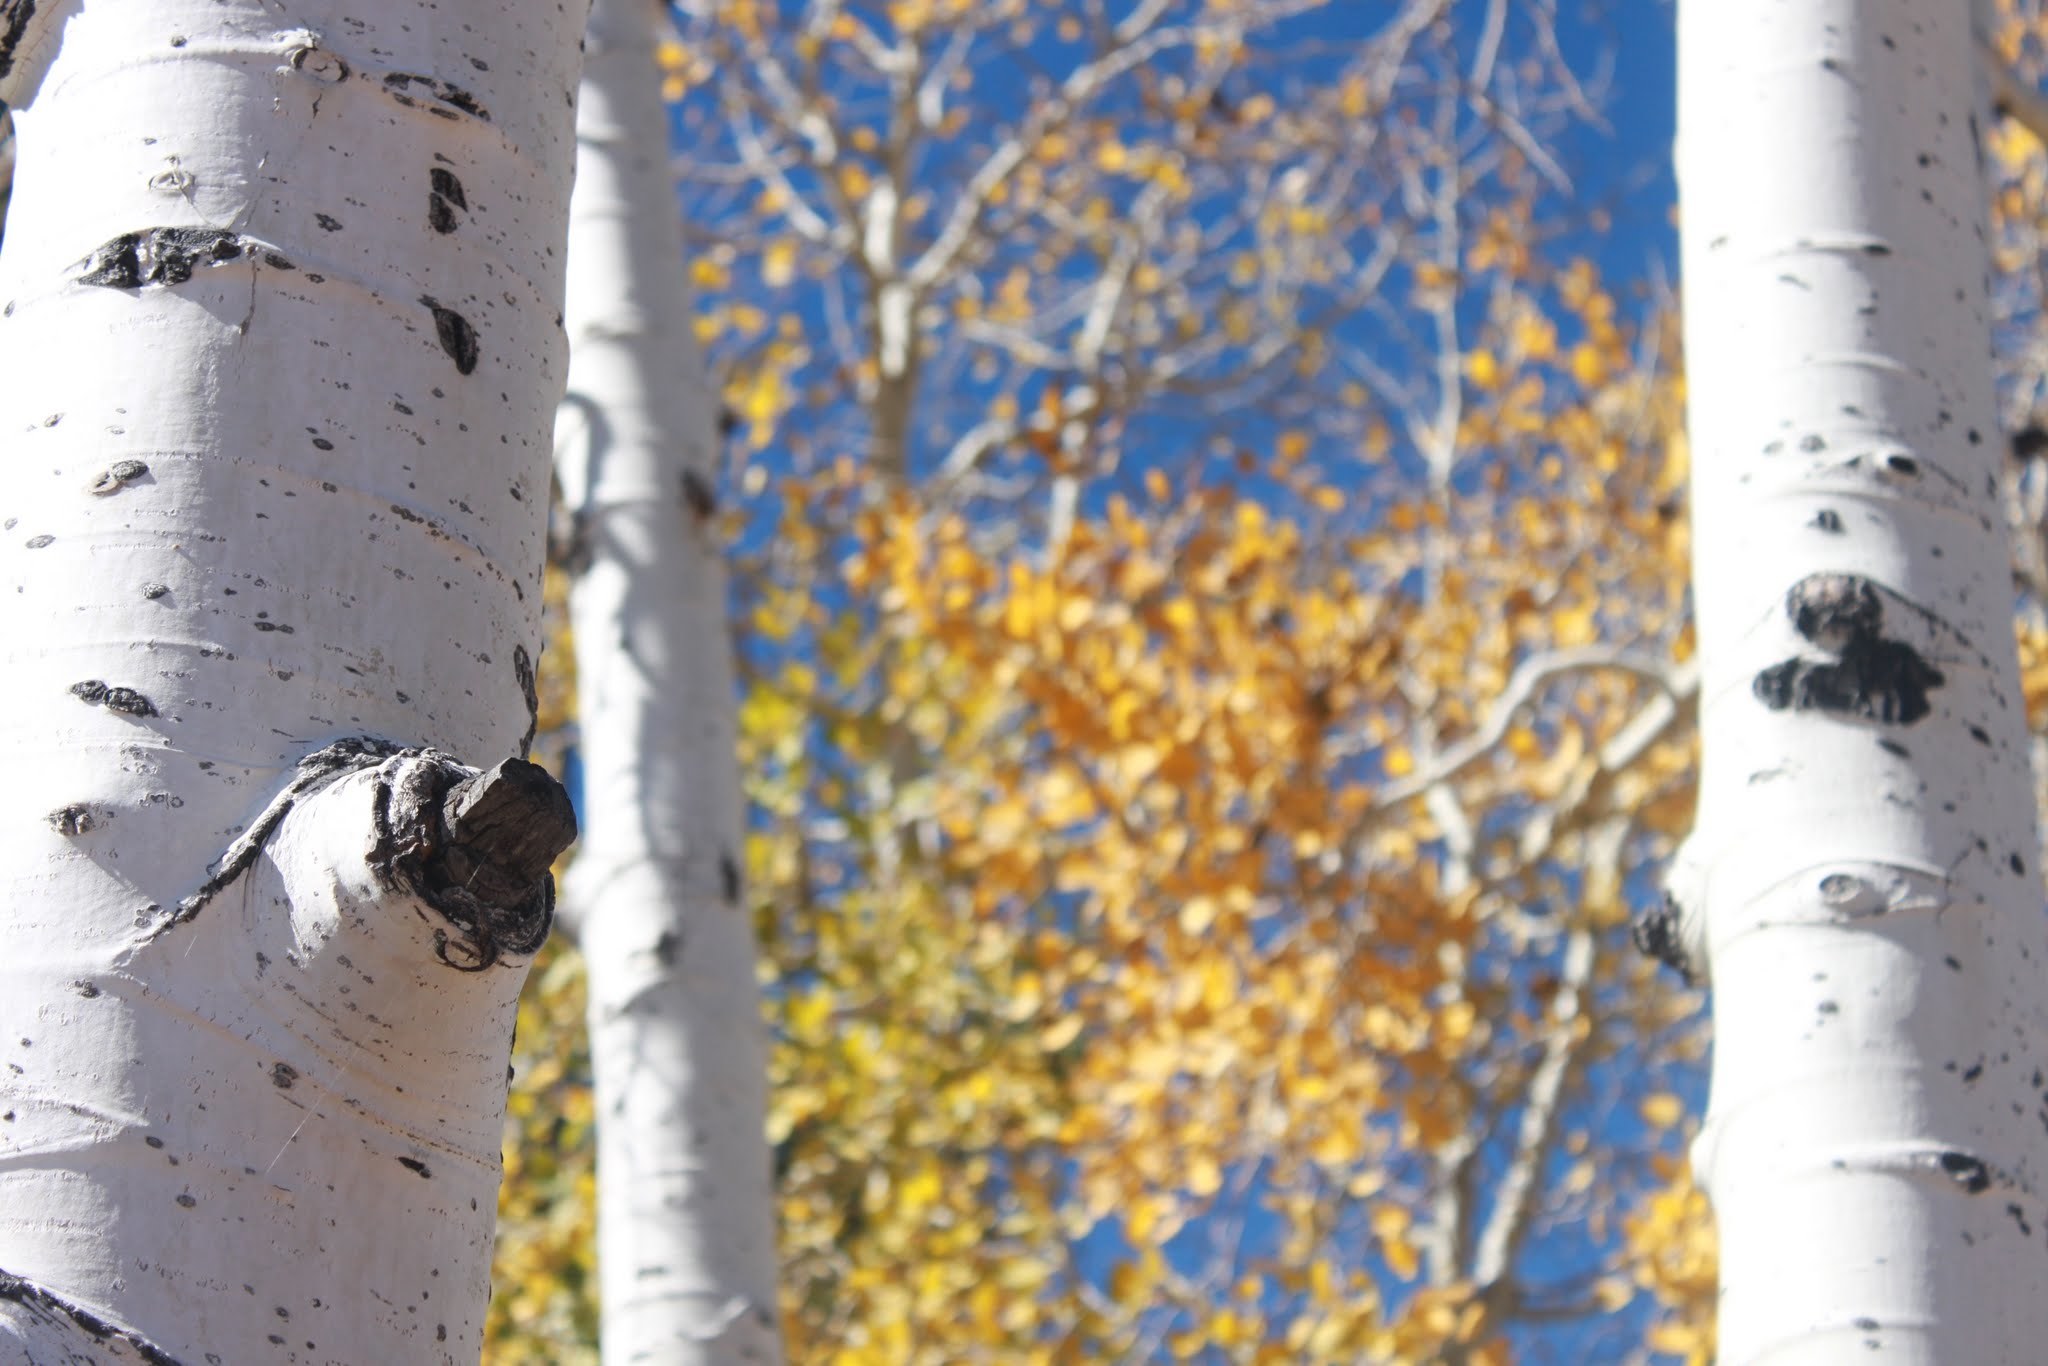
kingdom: Plantae
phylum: Tracheophyta
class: Magnoliopsida
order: Malpighiales
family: Salicaceae
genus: Populus
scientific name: Populus tremuloides
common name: Quaking aspen
